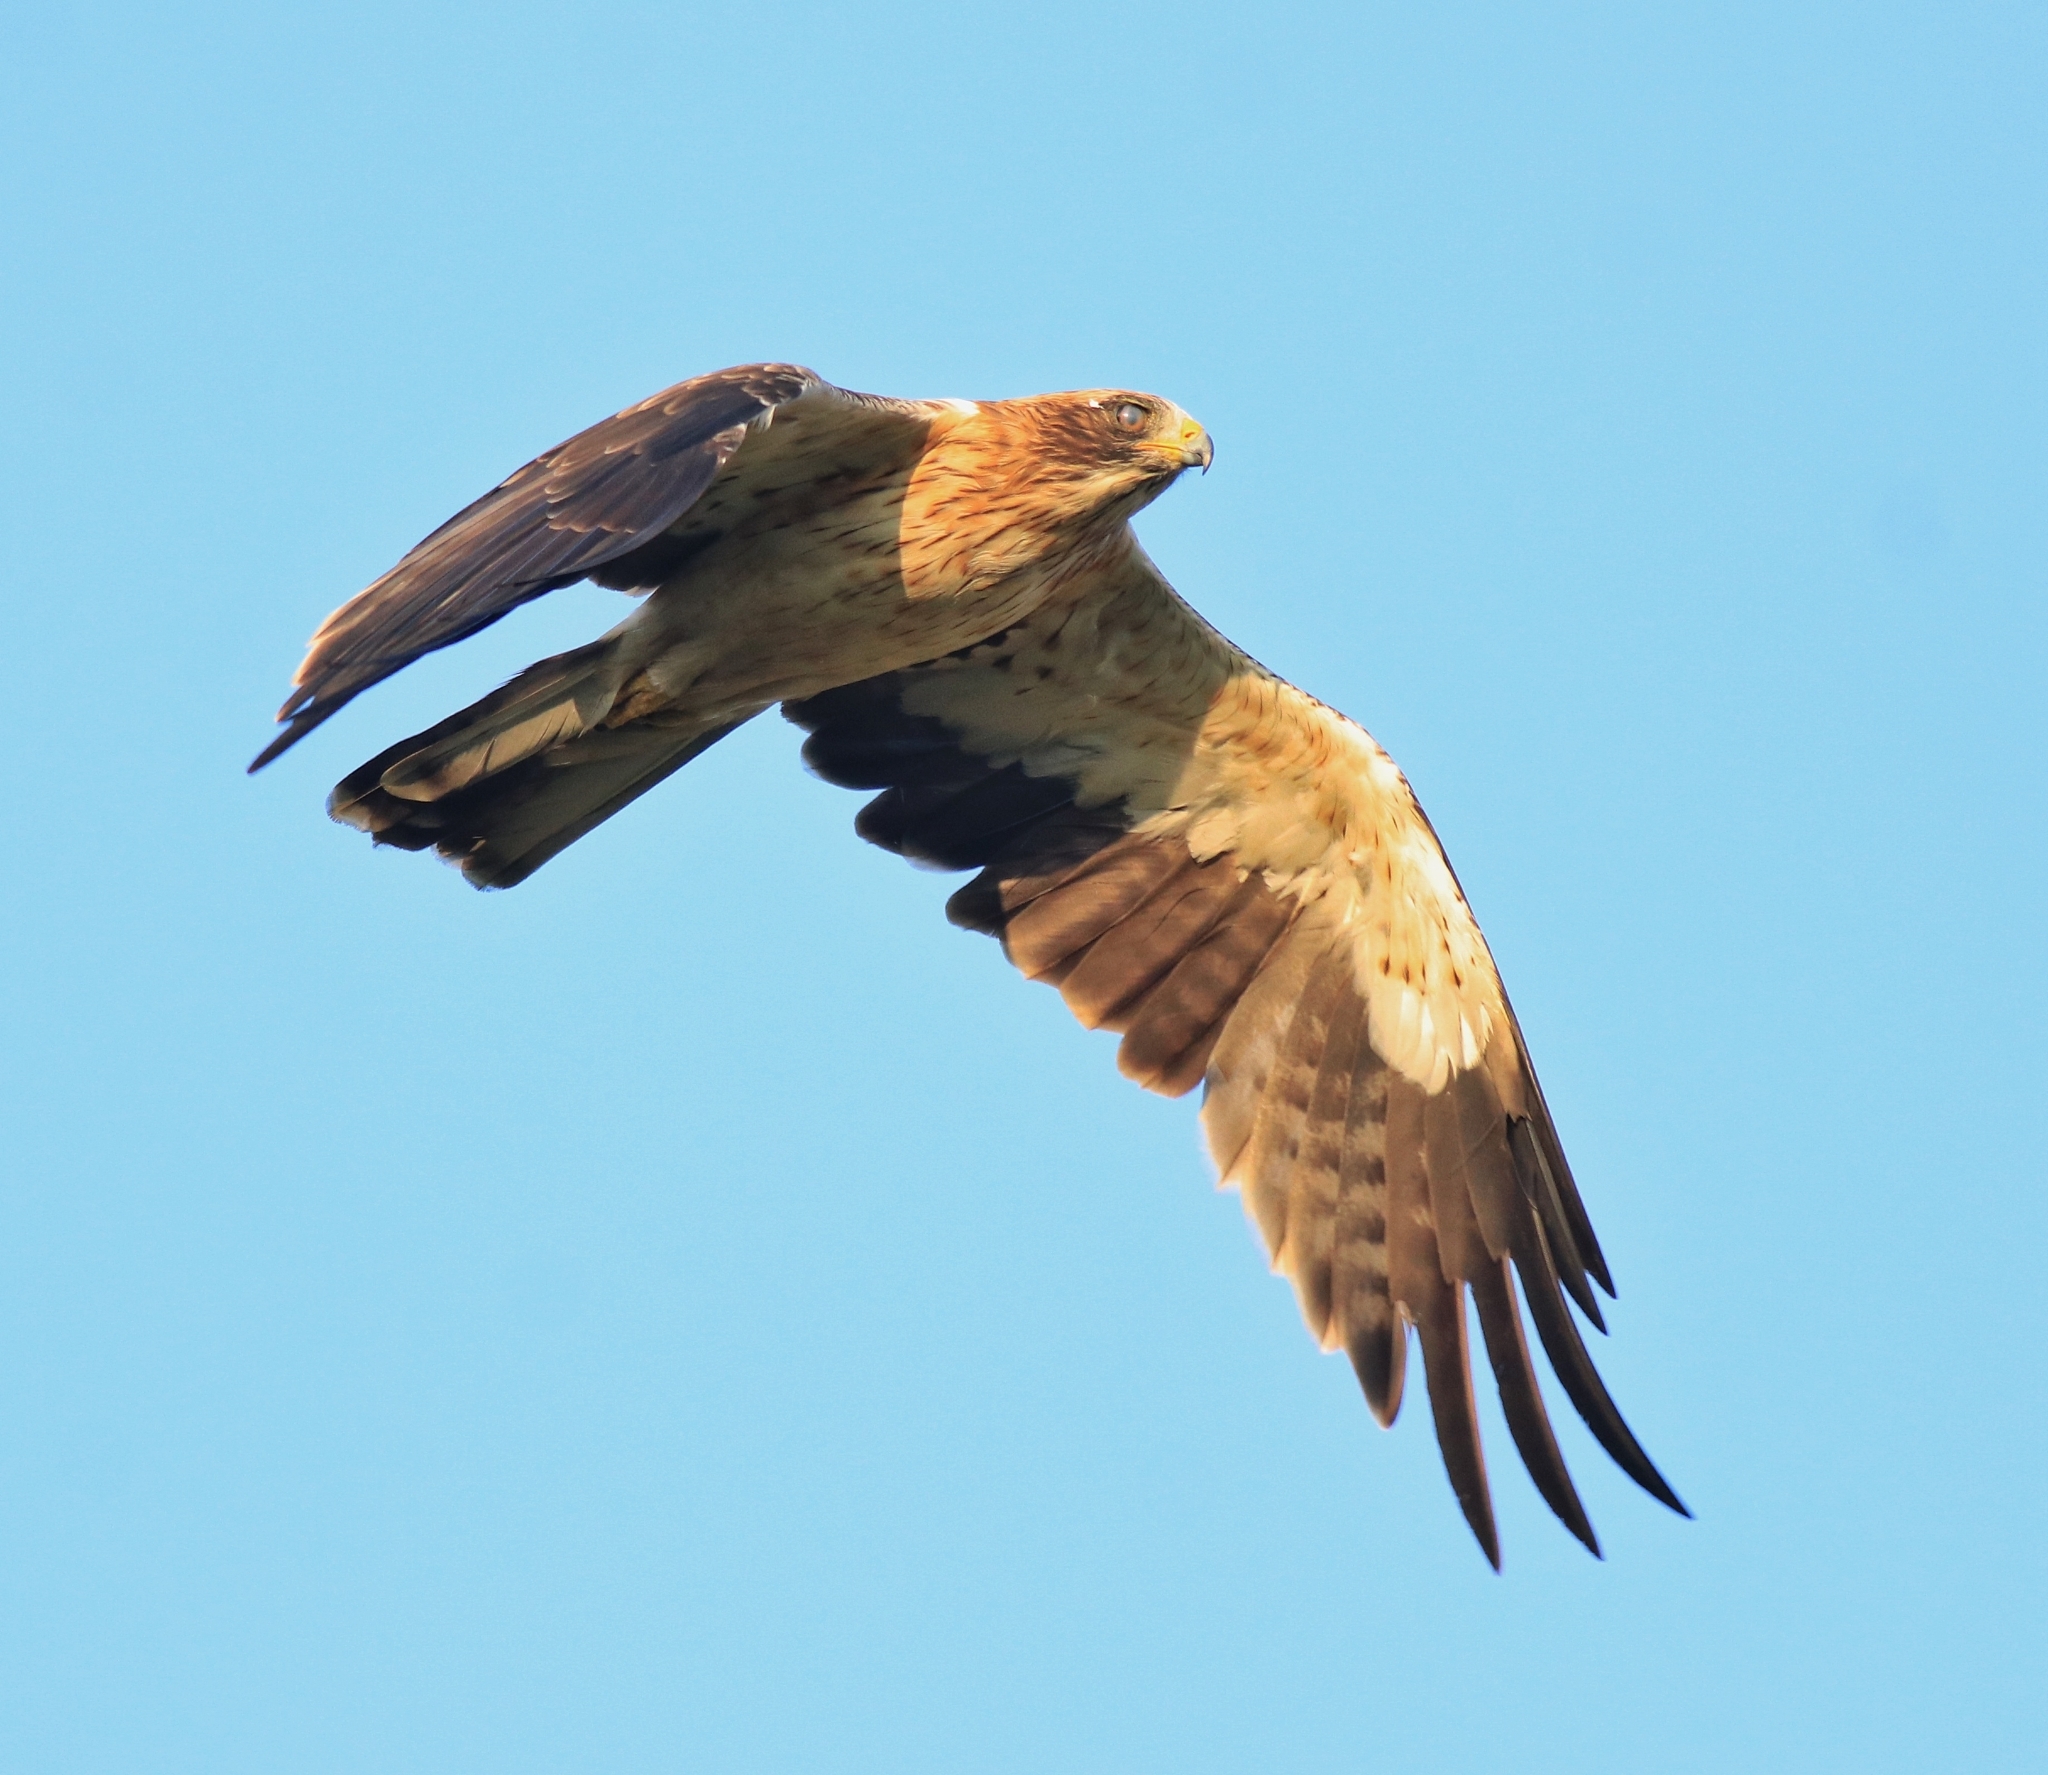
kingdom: Animalia
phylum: Chordata
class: Aves
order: Accipitriformes
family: Accipitridae
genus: Hieraaetus
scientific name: Hieraaetus pennatus
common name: Booted eagle
